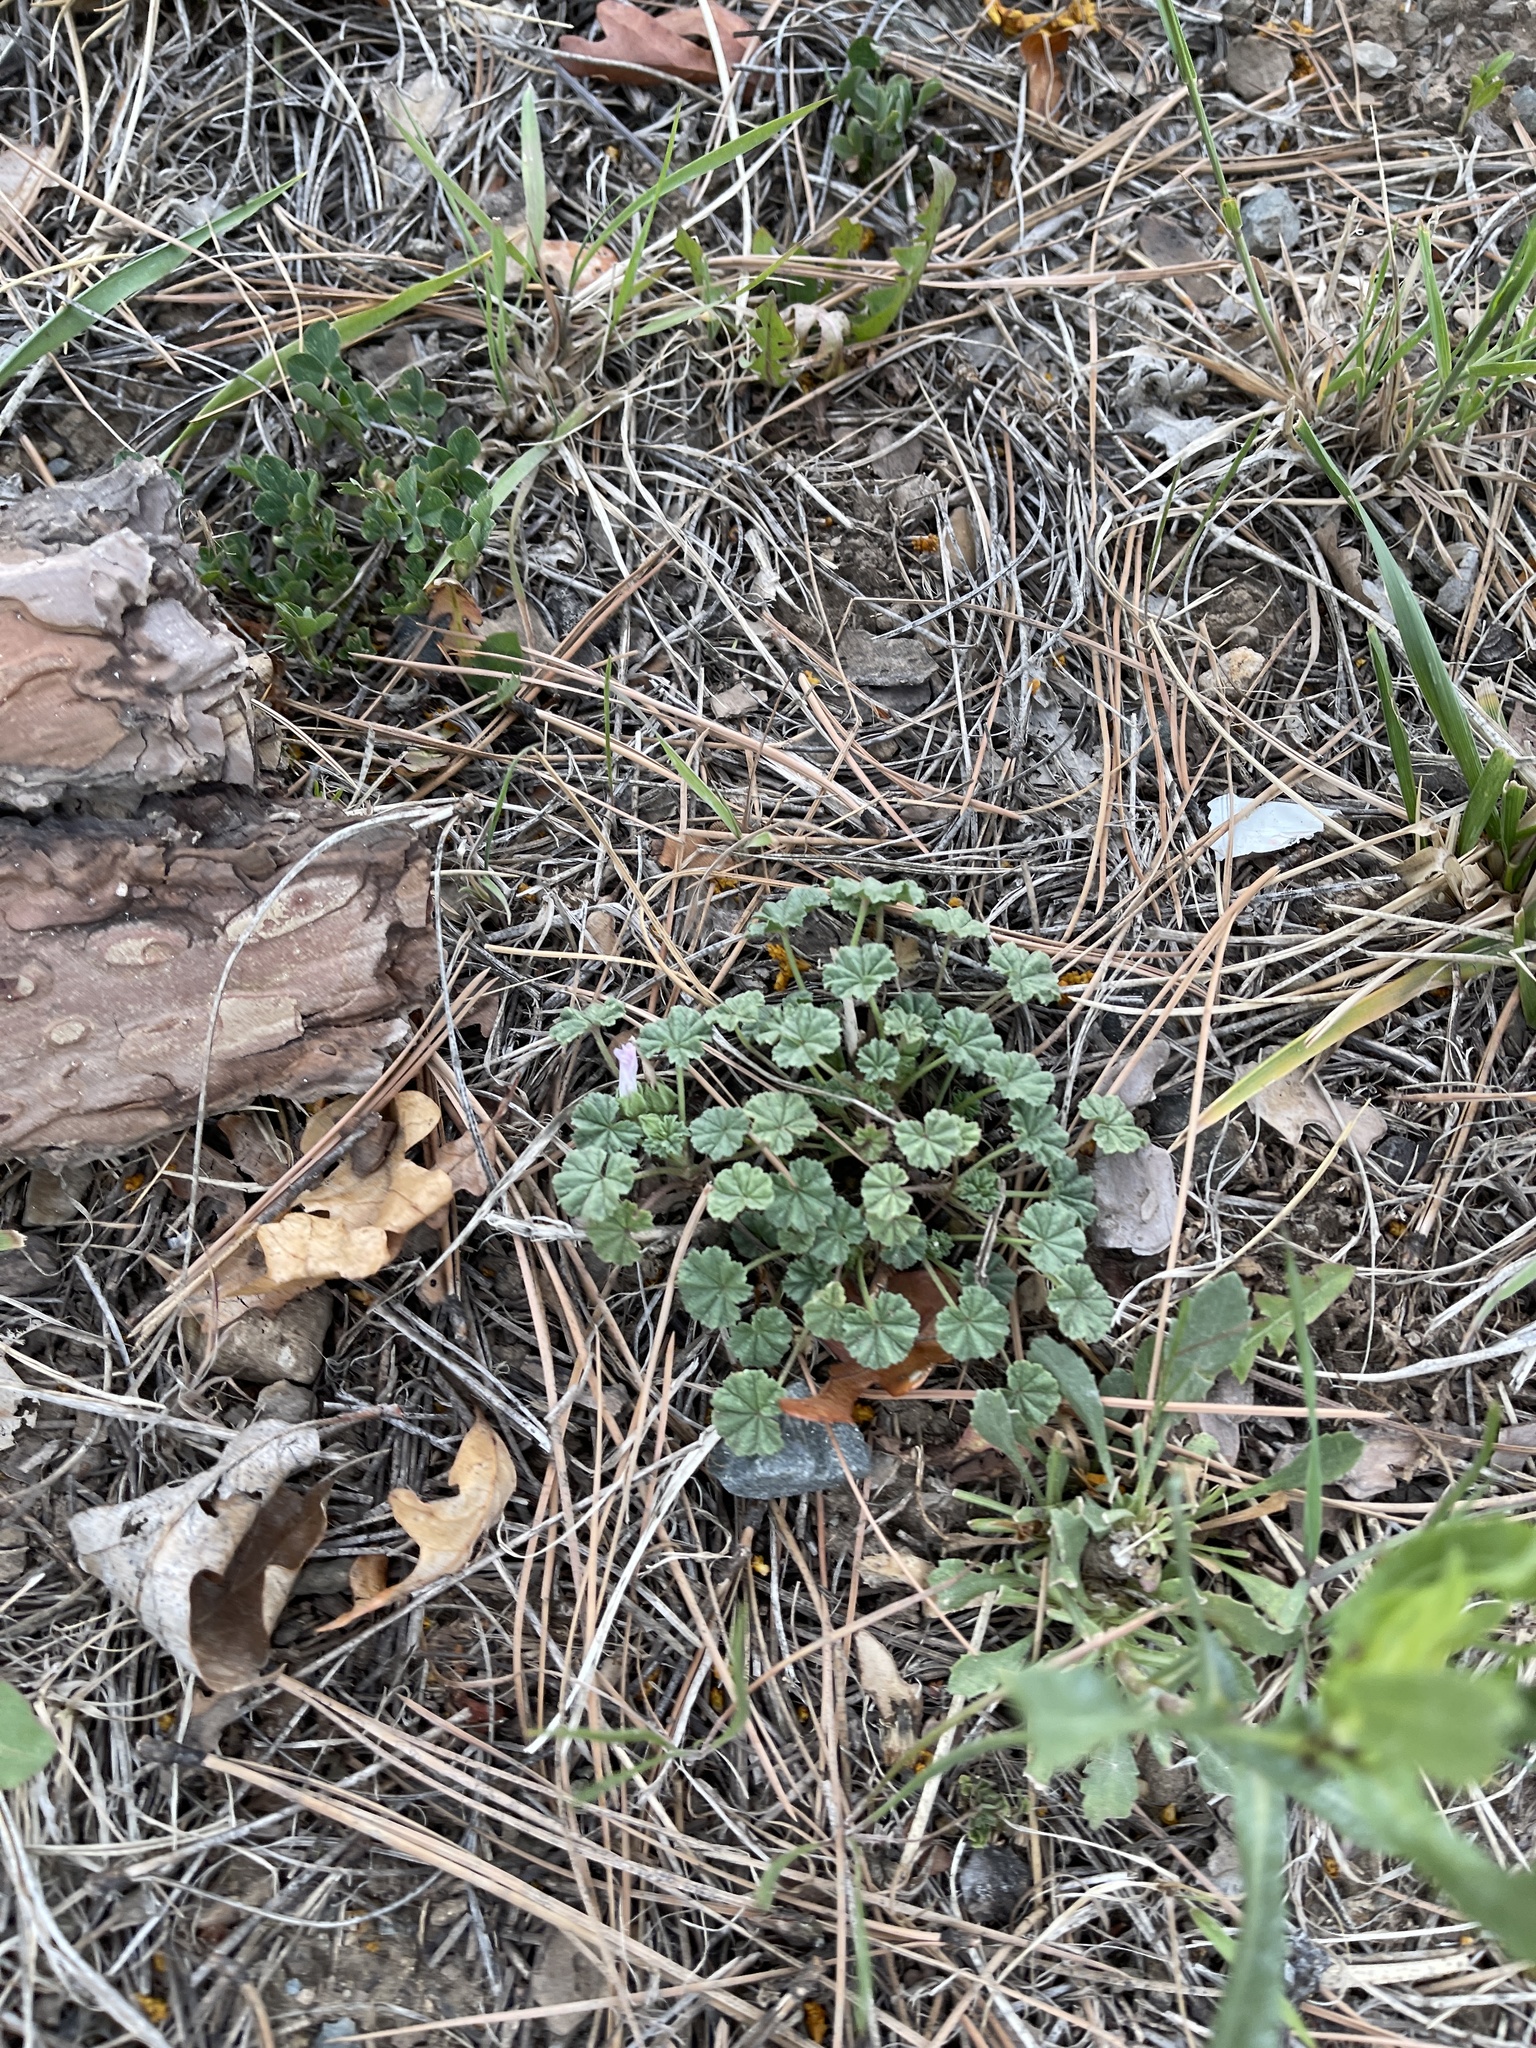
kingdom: Plantae
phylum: Tracheophyta
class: Magnoliopsida
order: Malvales
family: Malvaceae
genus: Malva
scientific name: Malva neglecta
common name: Common mallow
